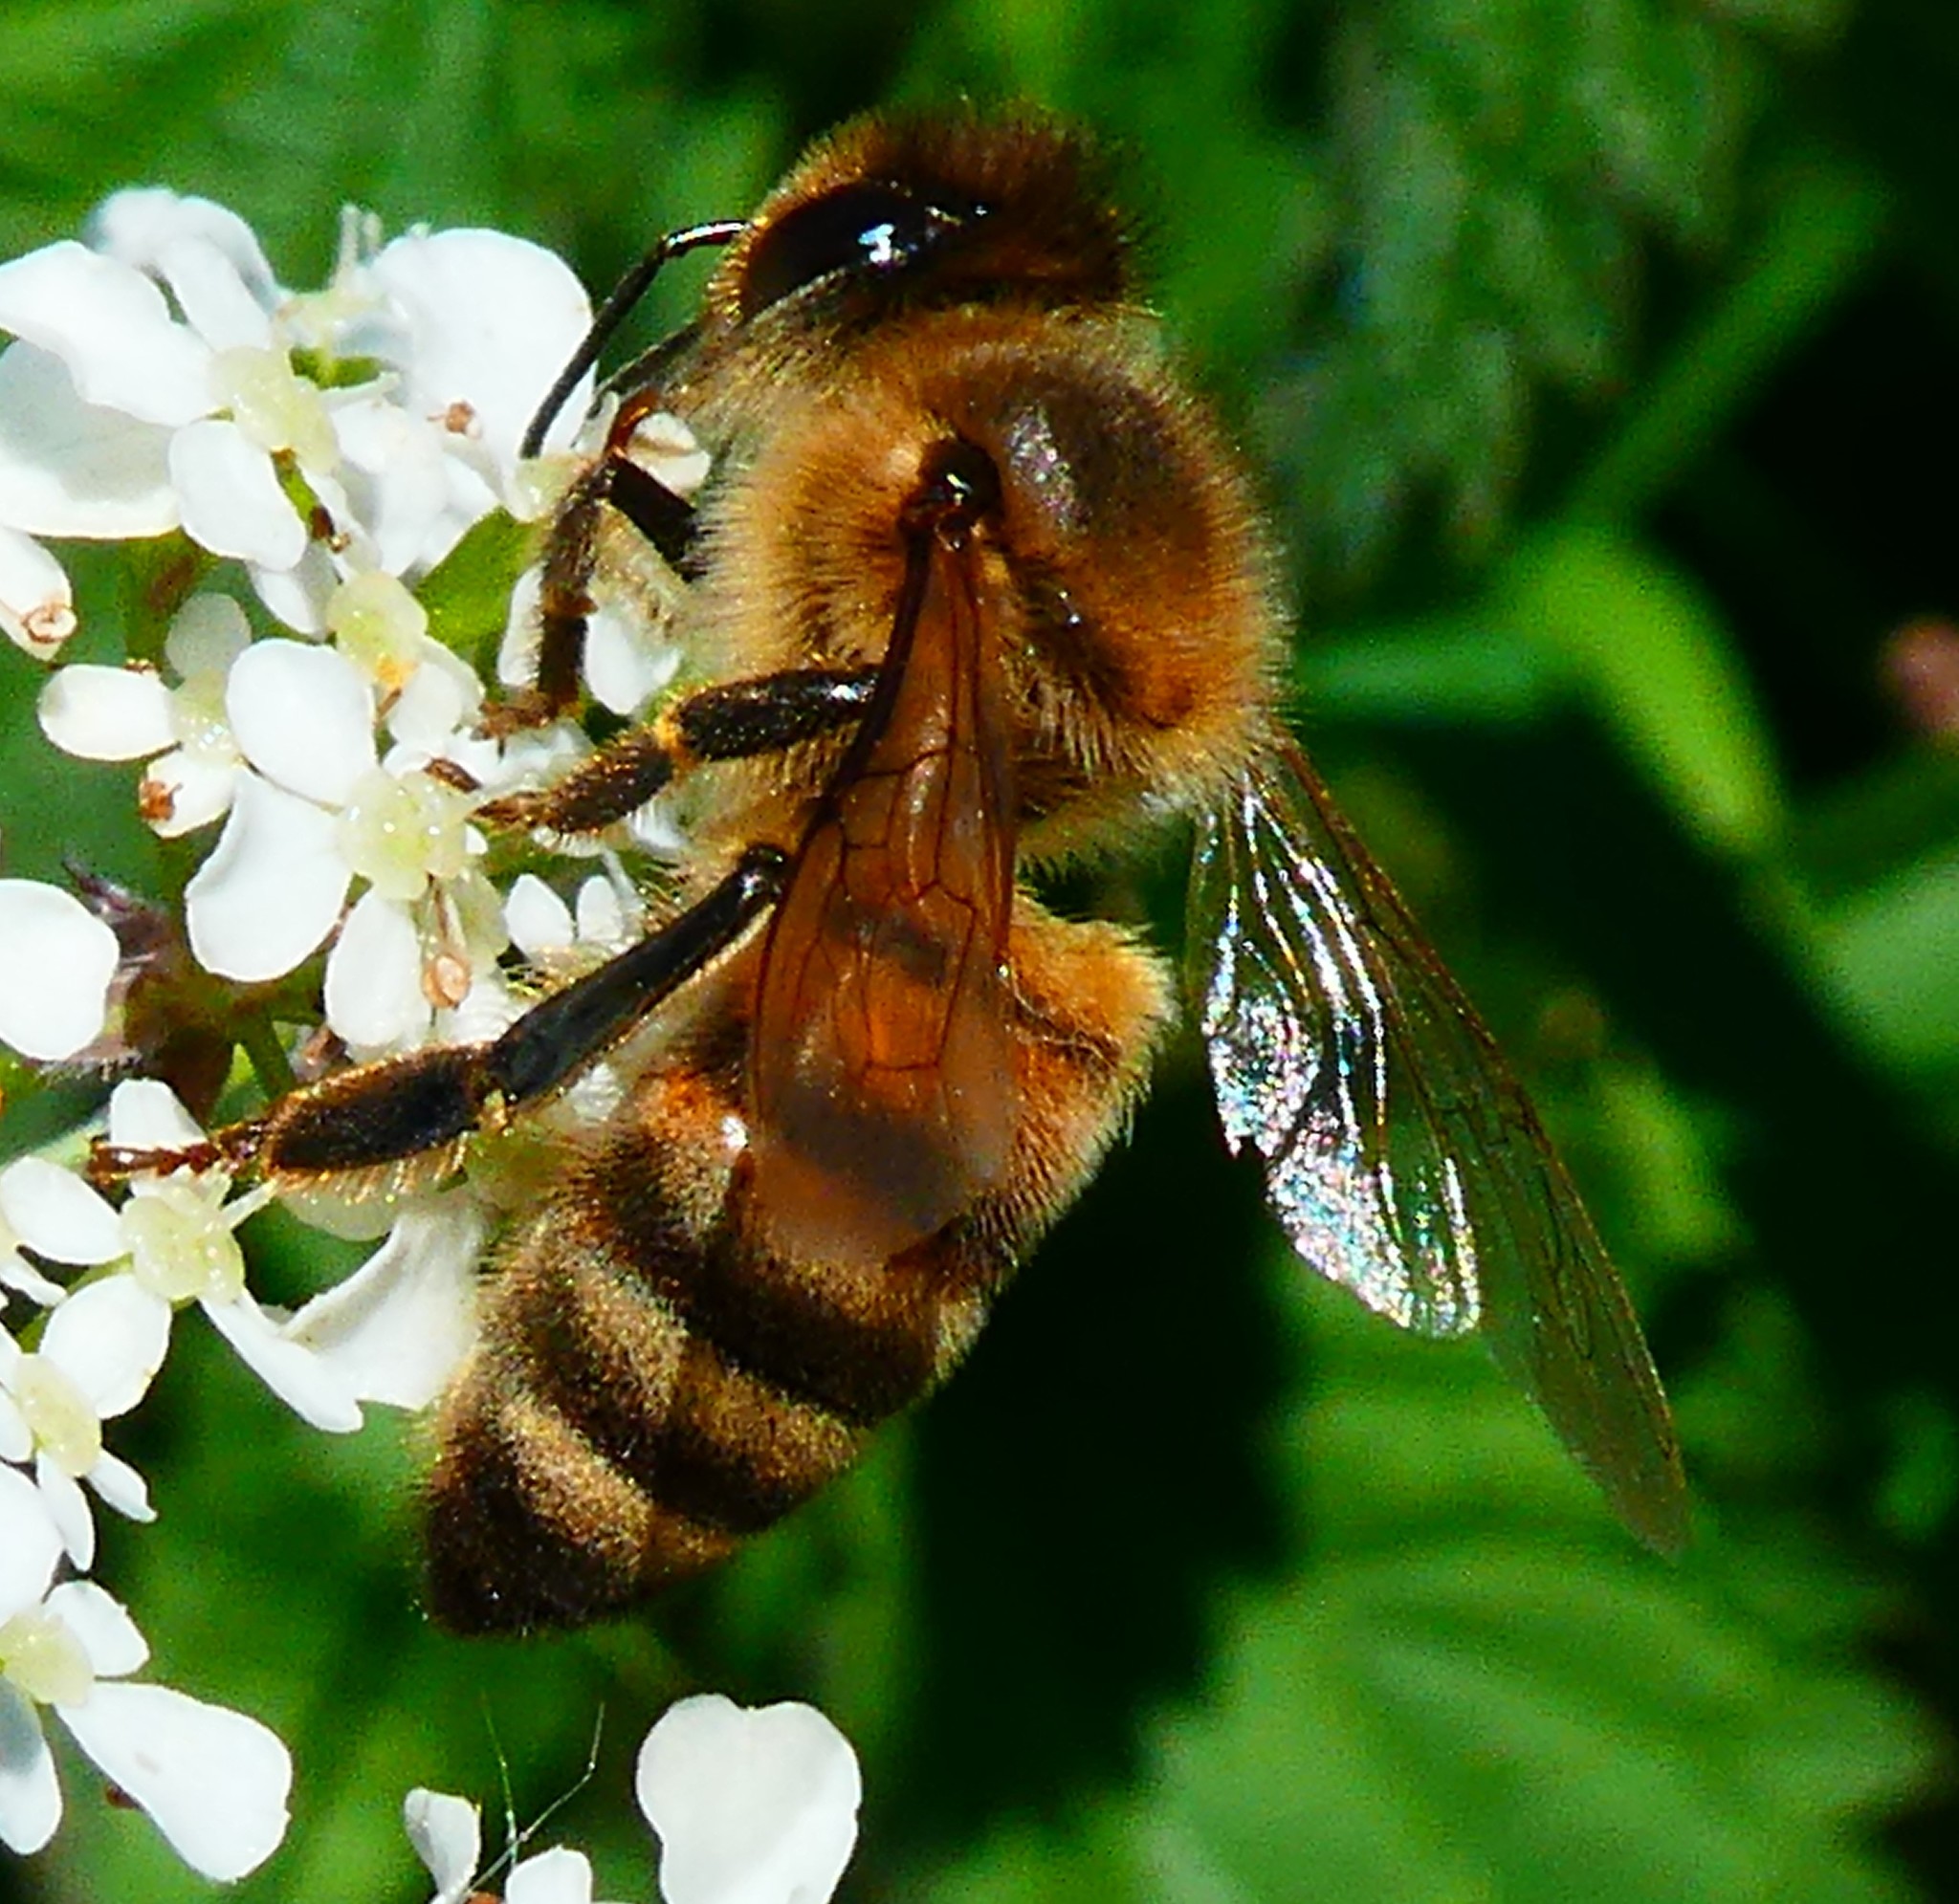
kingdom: Animalia
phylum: Arthropoda
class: Insecta
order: Hymenoptera
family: Apidae
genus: Apis
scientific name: Apis mellifera
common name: Honey bee
